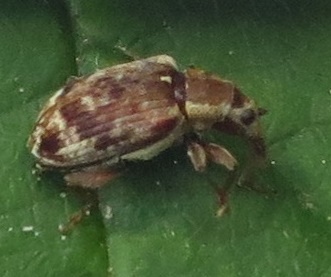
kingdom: Animalia
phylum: Arthropoda
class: Insecta
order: Coleoptera
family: Curculionidae
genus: Rhopalomerus
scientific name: Rhopalomerus tenuirostris
